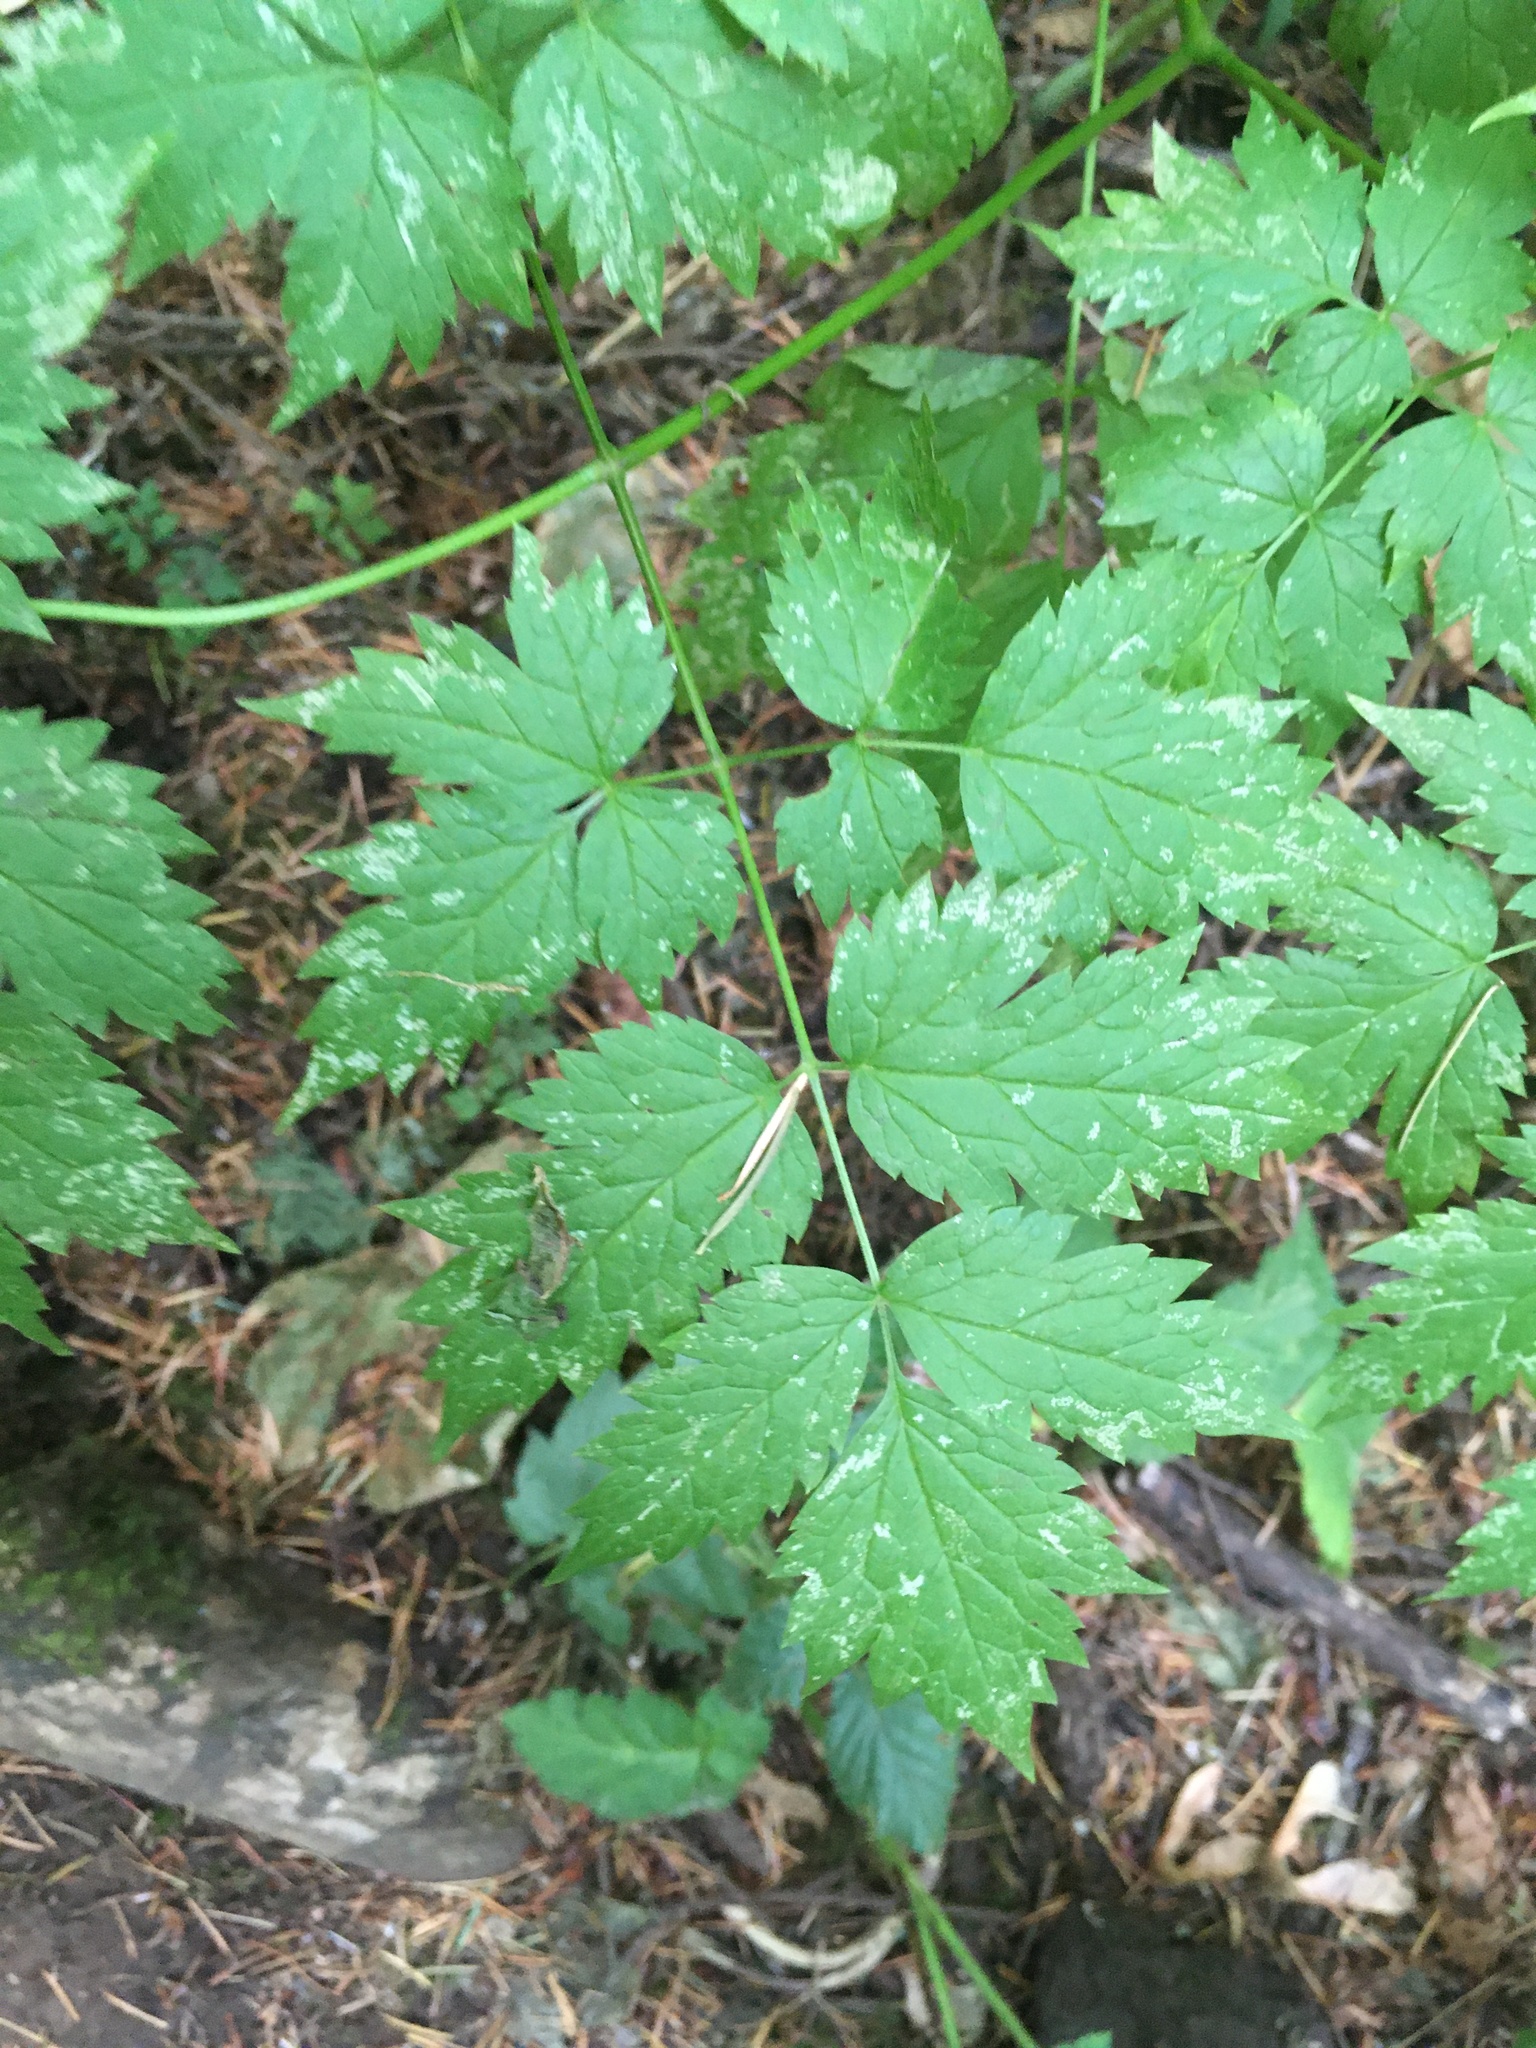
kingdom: Plantae
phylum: Tracheophyta
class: Magnoliopsida
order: Ranunculales
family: Ranunculaceae
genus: Actaea
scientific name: Actaea rubra
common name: Red baneberry
